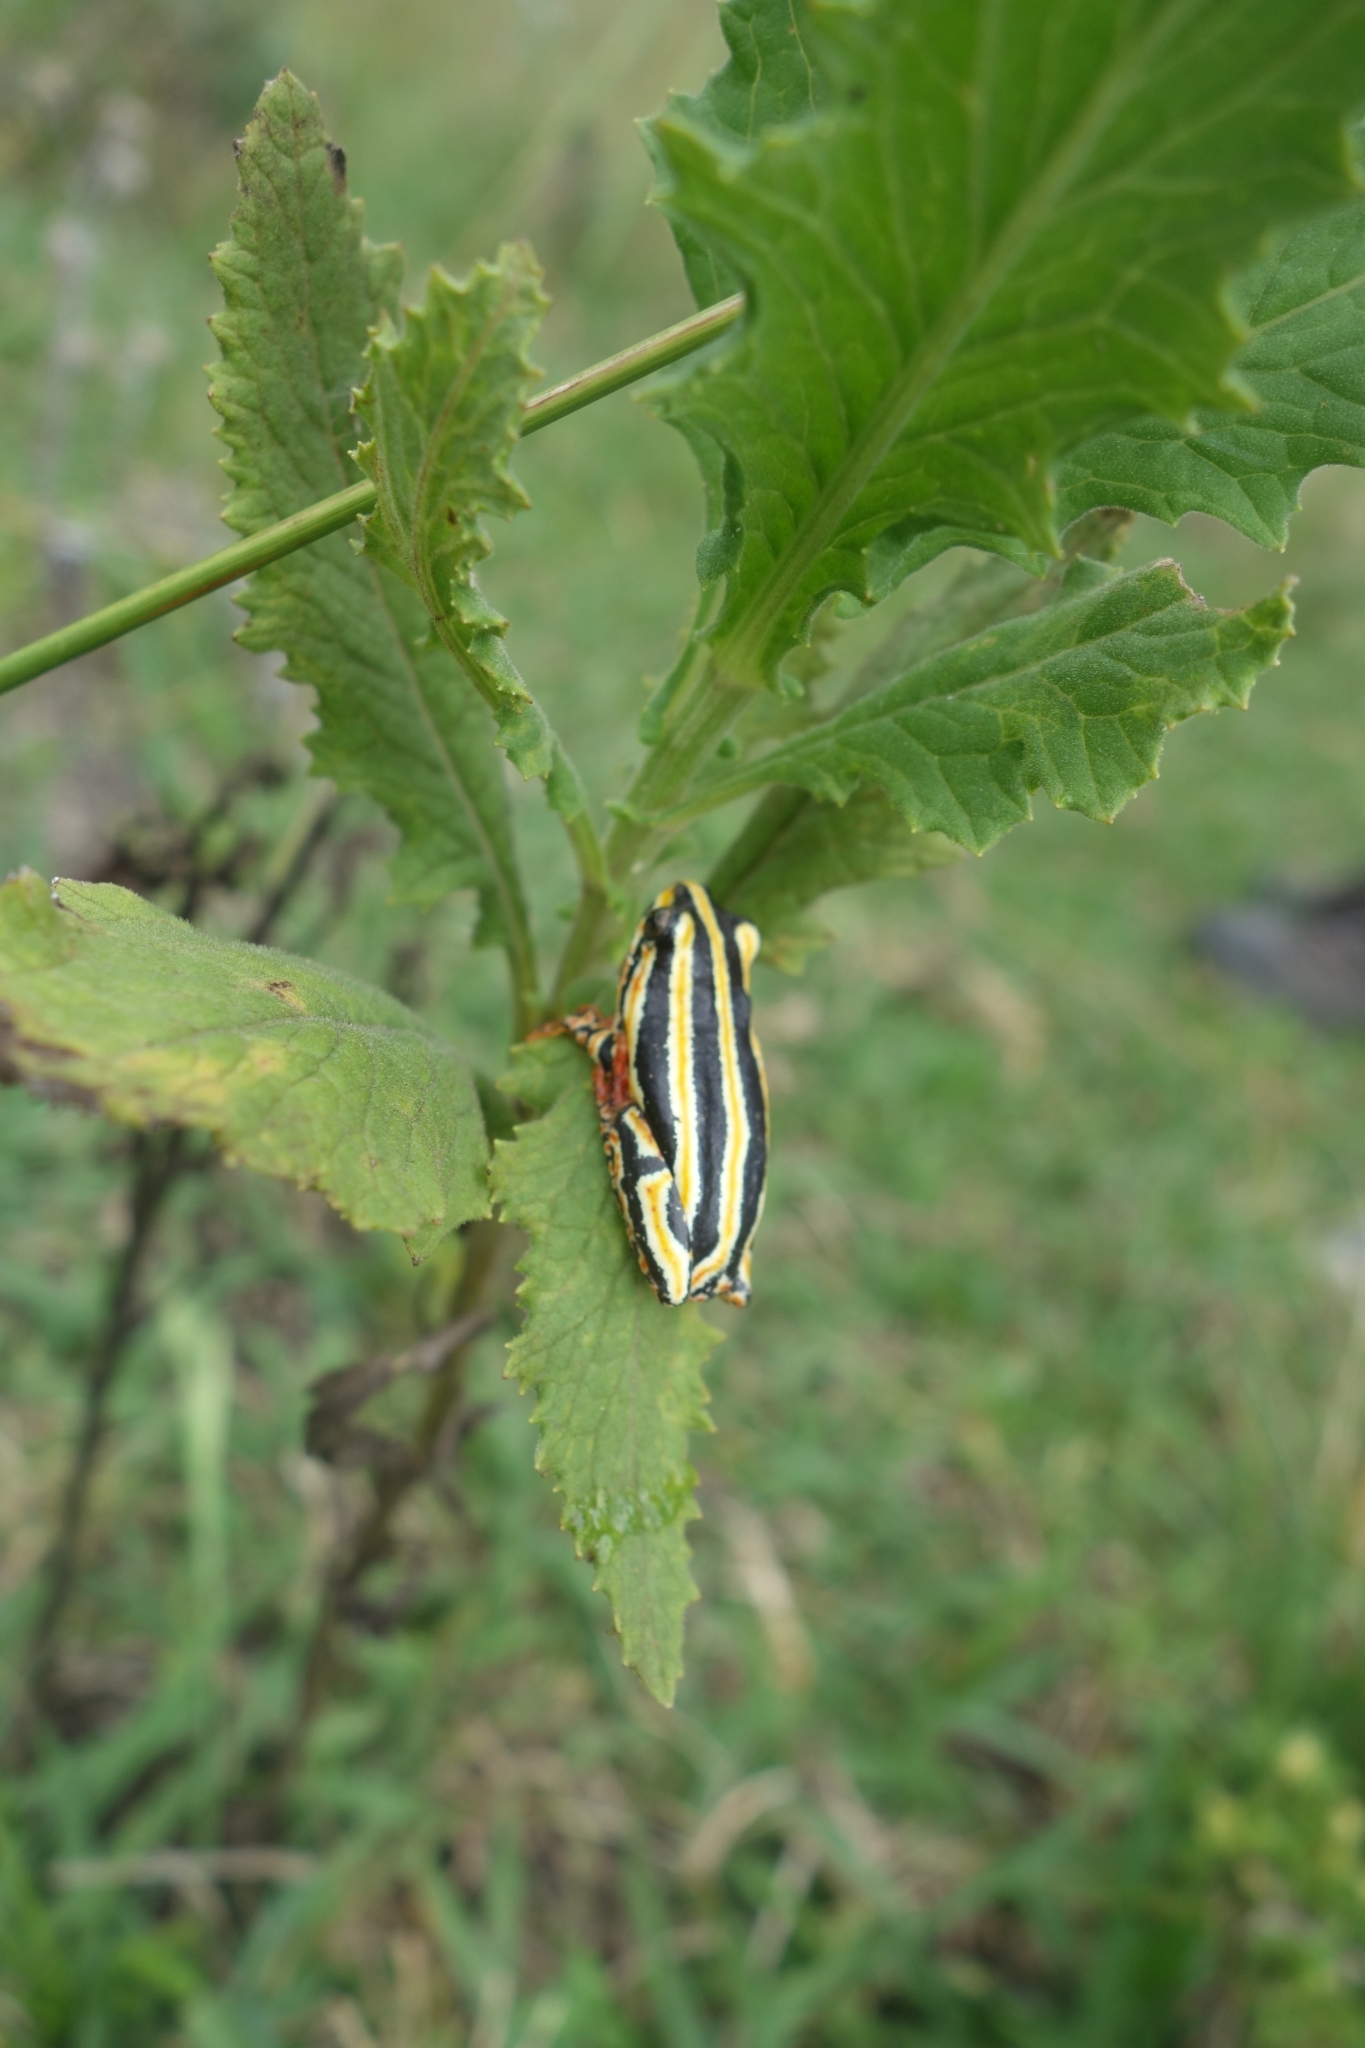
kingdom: Animalia
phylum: Chordata
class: Amphibia
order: Anura
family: Hyperoliidae
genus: Hyperolius
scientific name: Hyperolius marmoratus
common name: Painted reed frog
